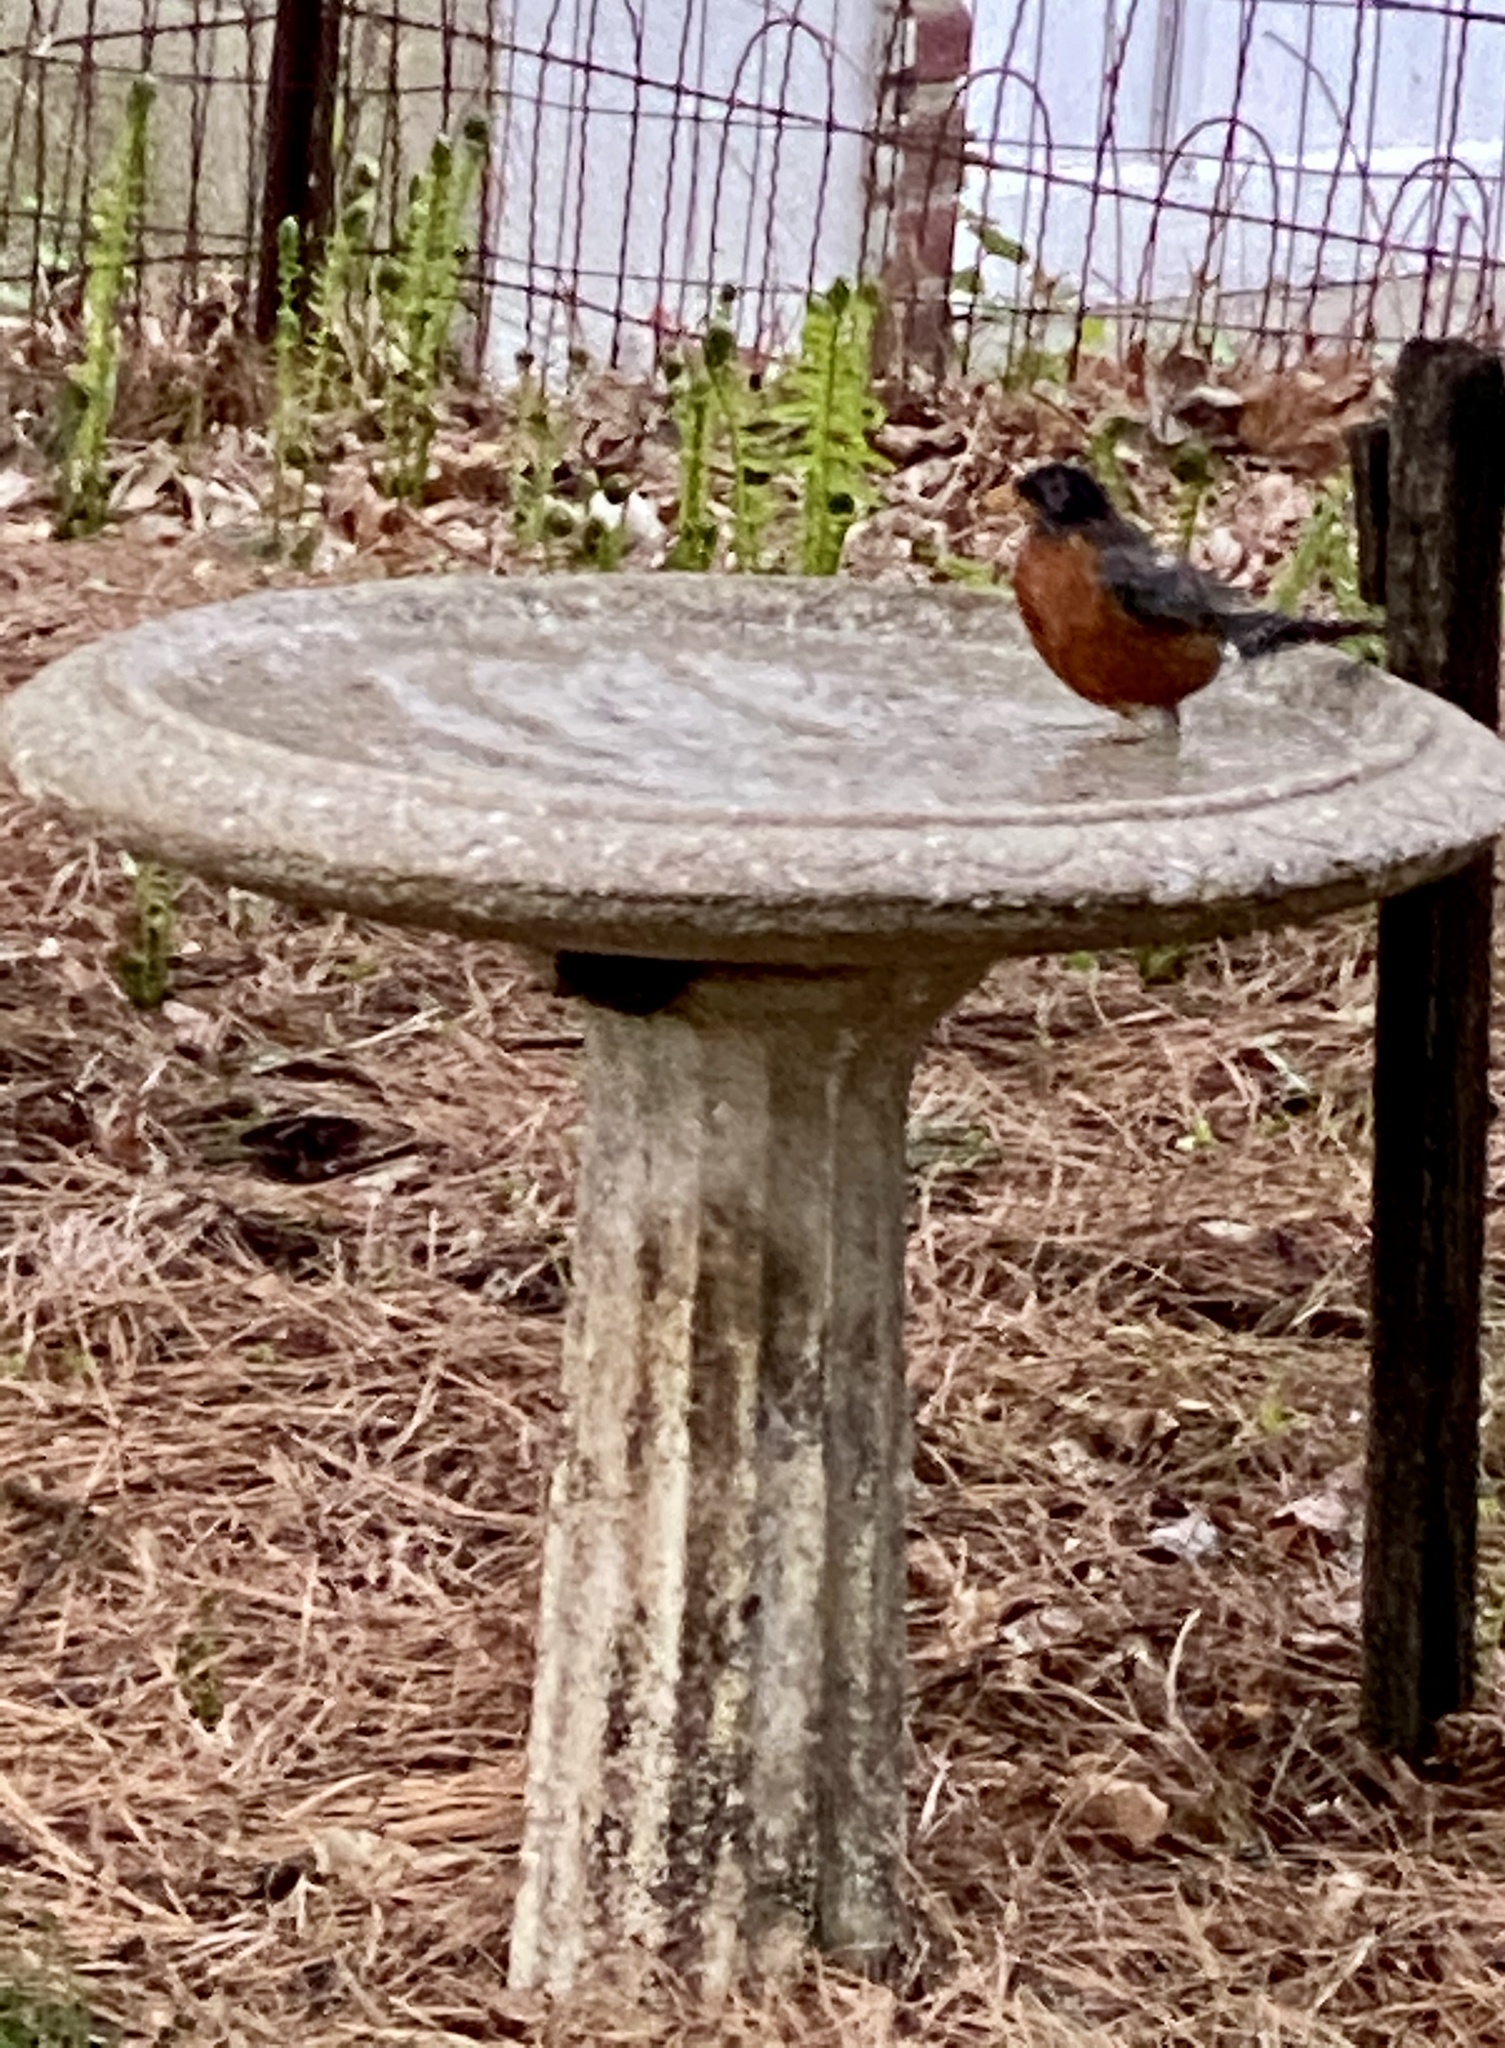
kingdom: Animalia
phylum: Chordata
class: Aves
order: Passeriformes
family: Turdidae
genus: Turdus
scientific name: Turdus migratorius
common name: American robin
